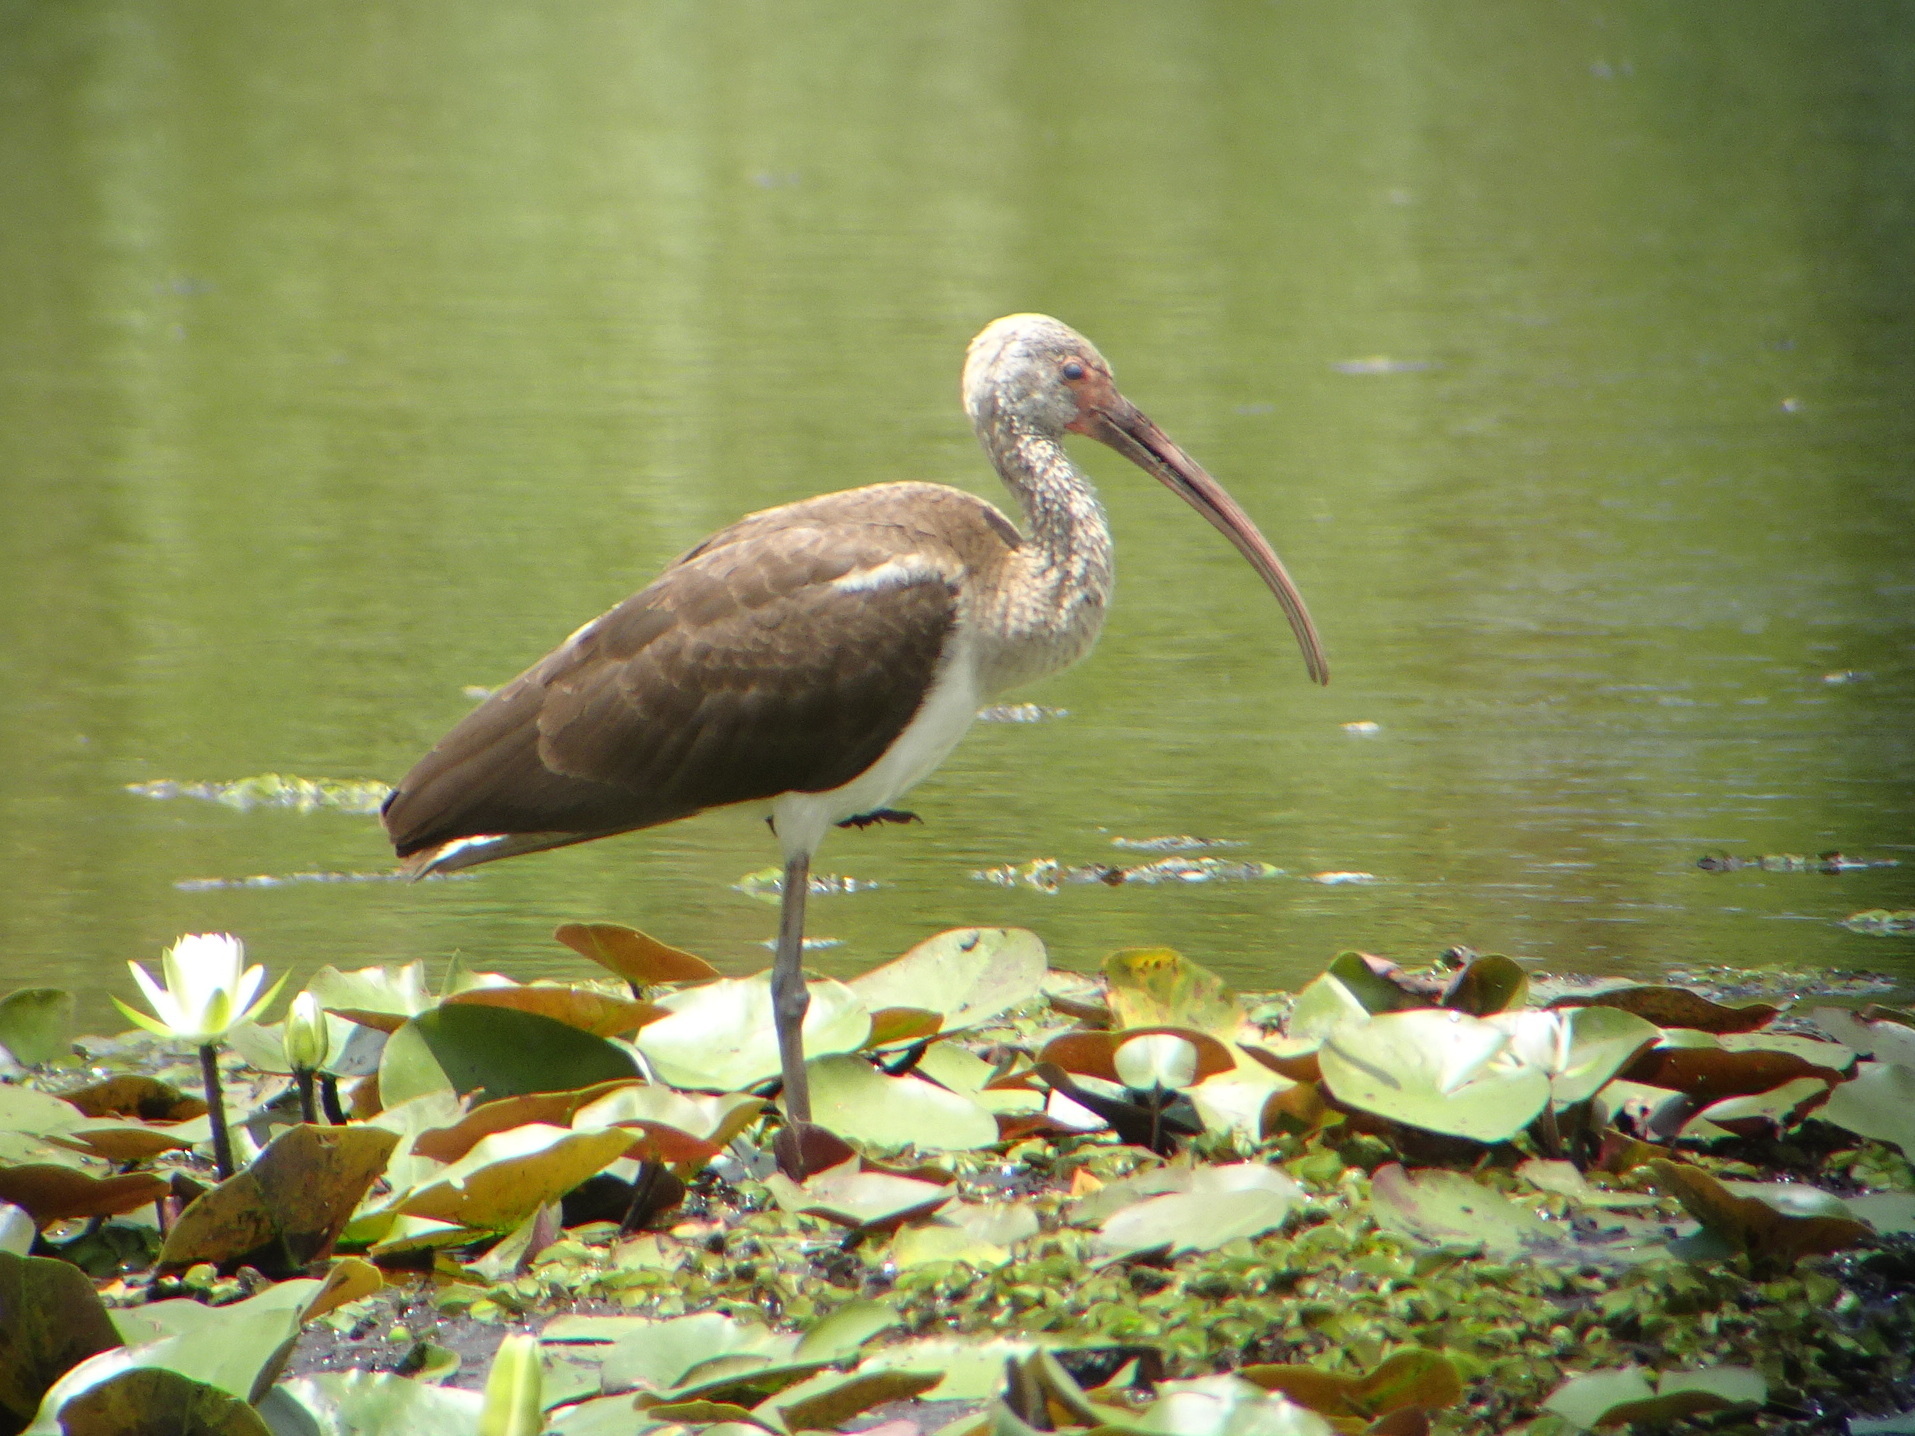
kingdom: Animalia
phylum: Chordata
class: Aves
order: Pelecaniformes
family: Threskiornithidae
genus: Eudocimus
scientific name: Eudocimus albus
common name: White ibis
